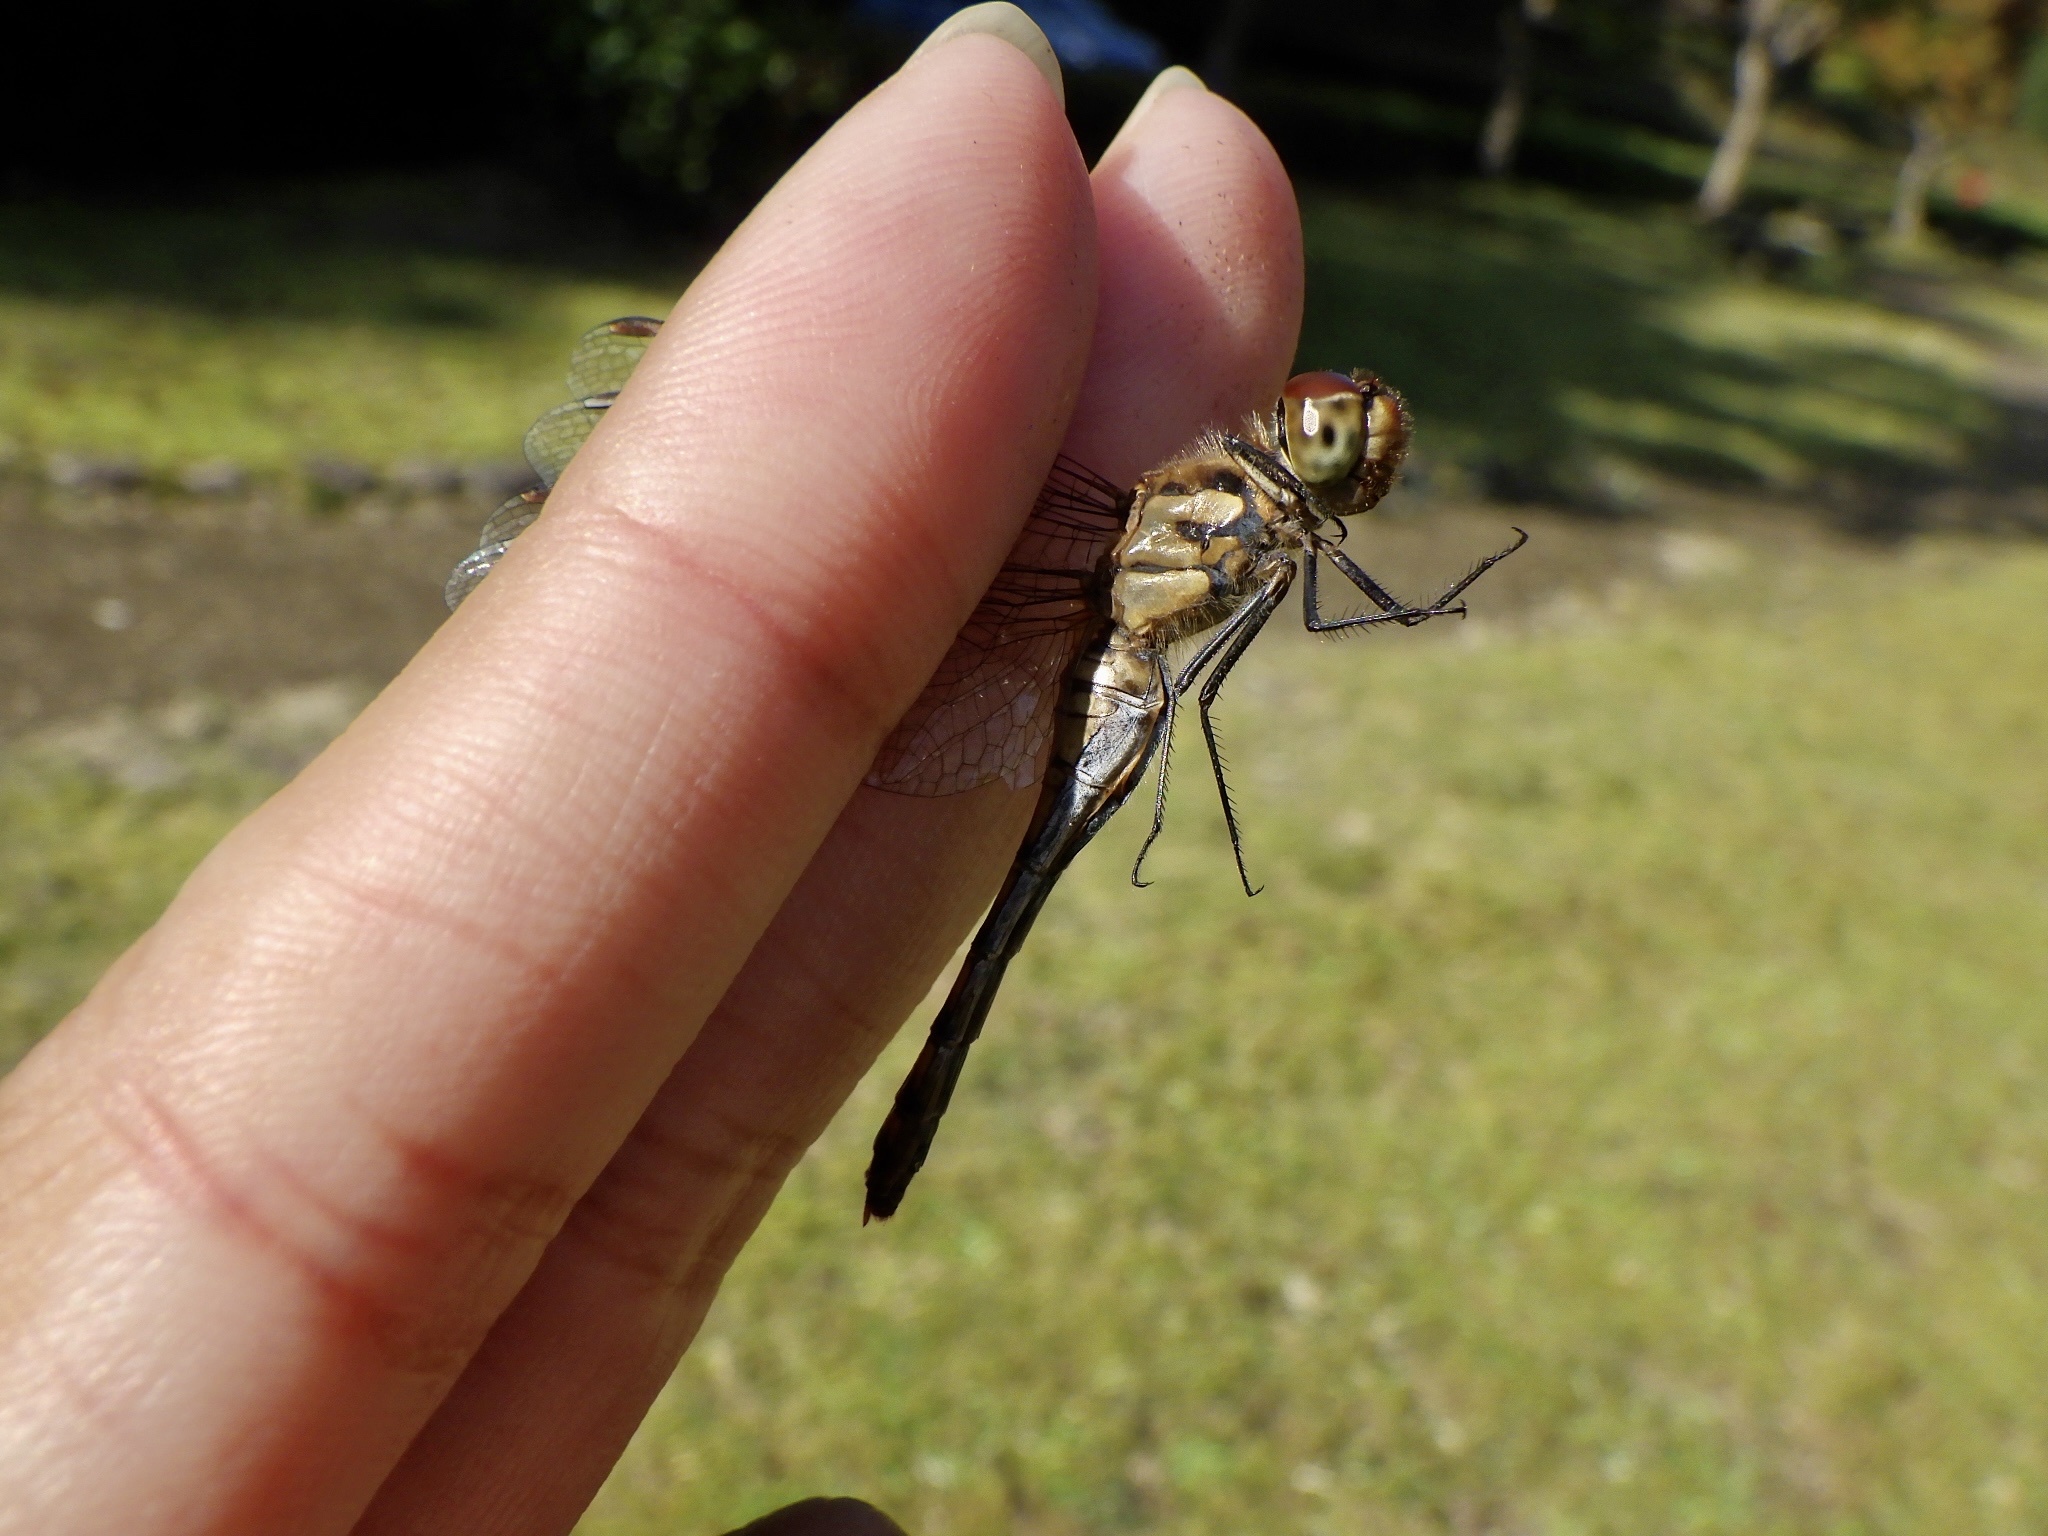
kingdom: Animalia
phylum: Arthropoda
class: Insecta
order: Odonata
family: Libellulidae
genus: Sympetrum
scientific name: Sympetrum darwinianum
